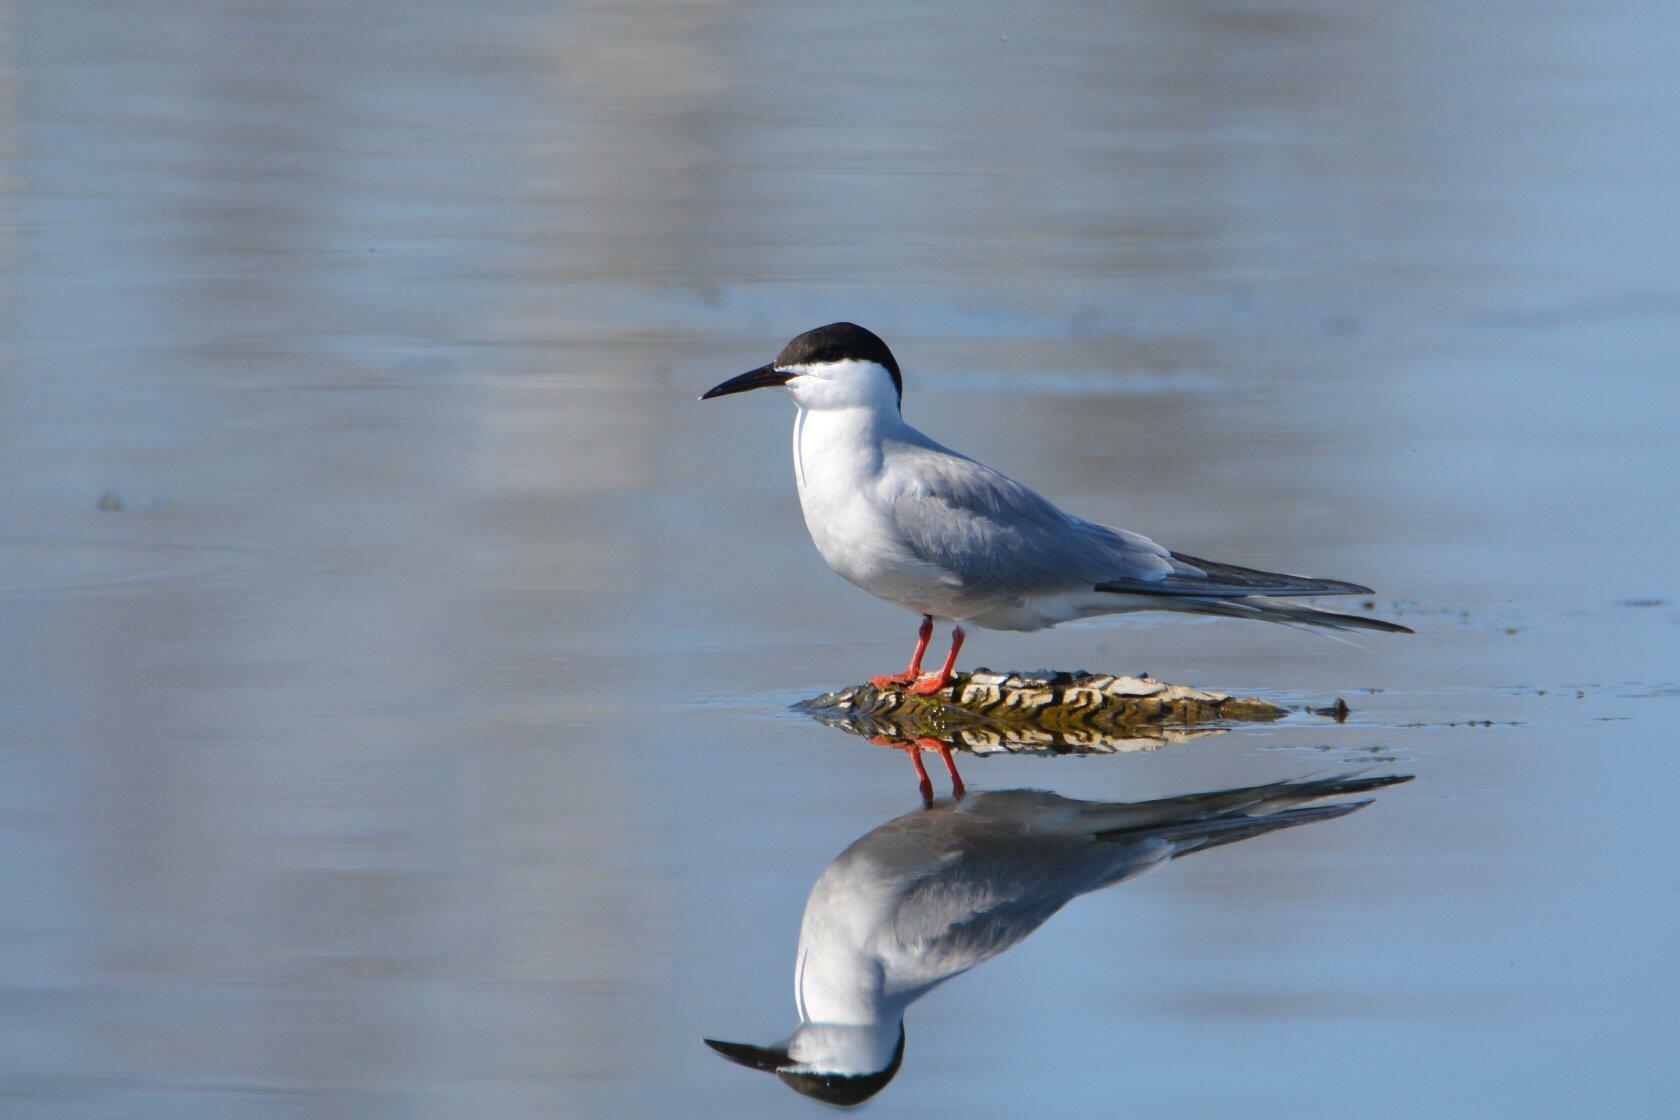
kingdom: Animalia
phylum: Chordata
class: Aves
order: Charadriiformes
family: Laridae
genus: Sterna
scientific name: Sterna hirundo
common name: Common tern
